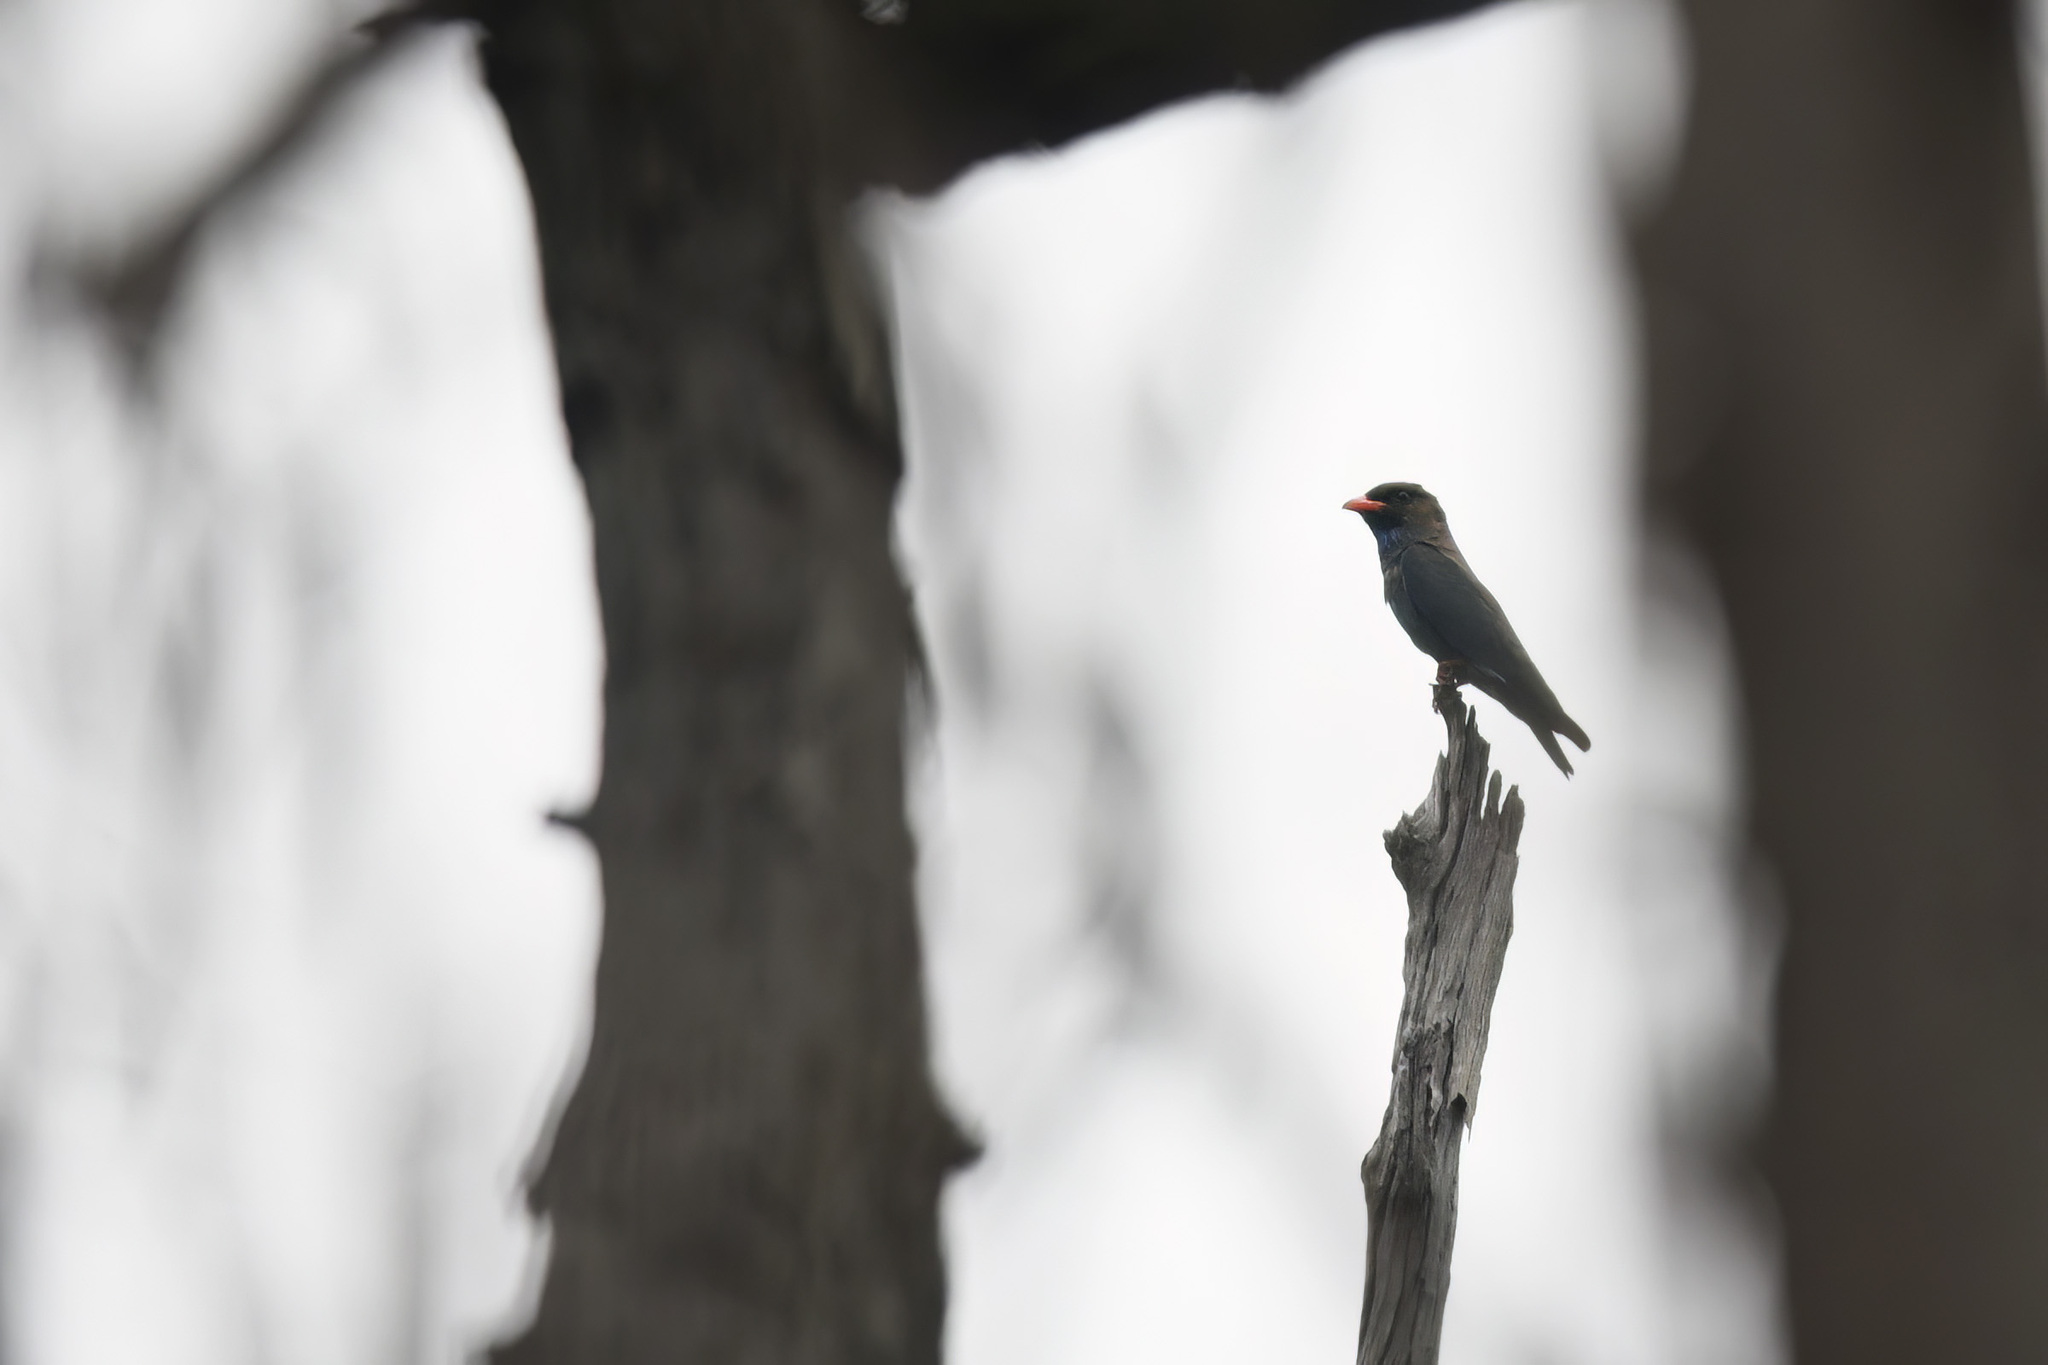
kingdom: Animalia
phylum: Chordata
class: Aves
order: Coraciiformes
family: Coraciidae
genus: Eurystomus
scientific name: Eurystomus orientalis
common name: Oriental dollarbird
